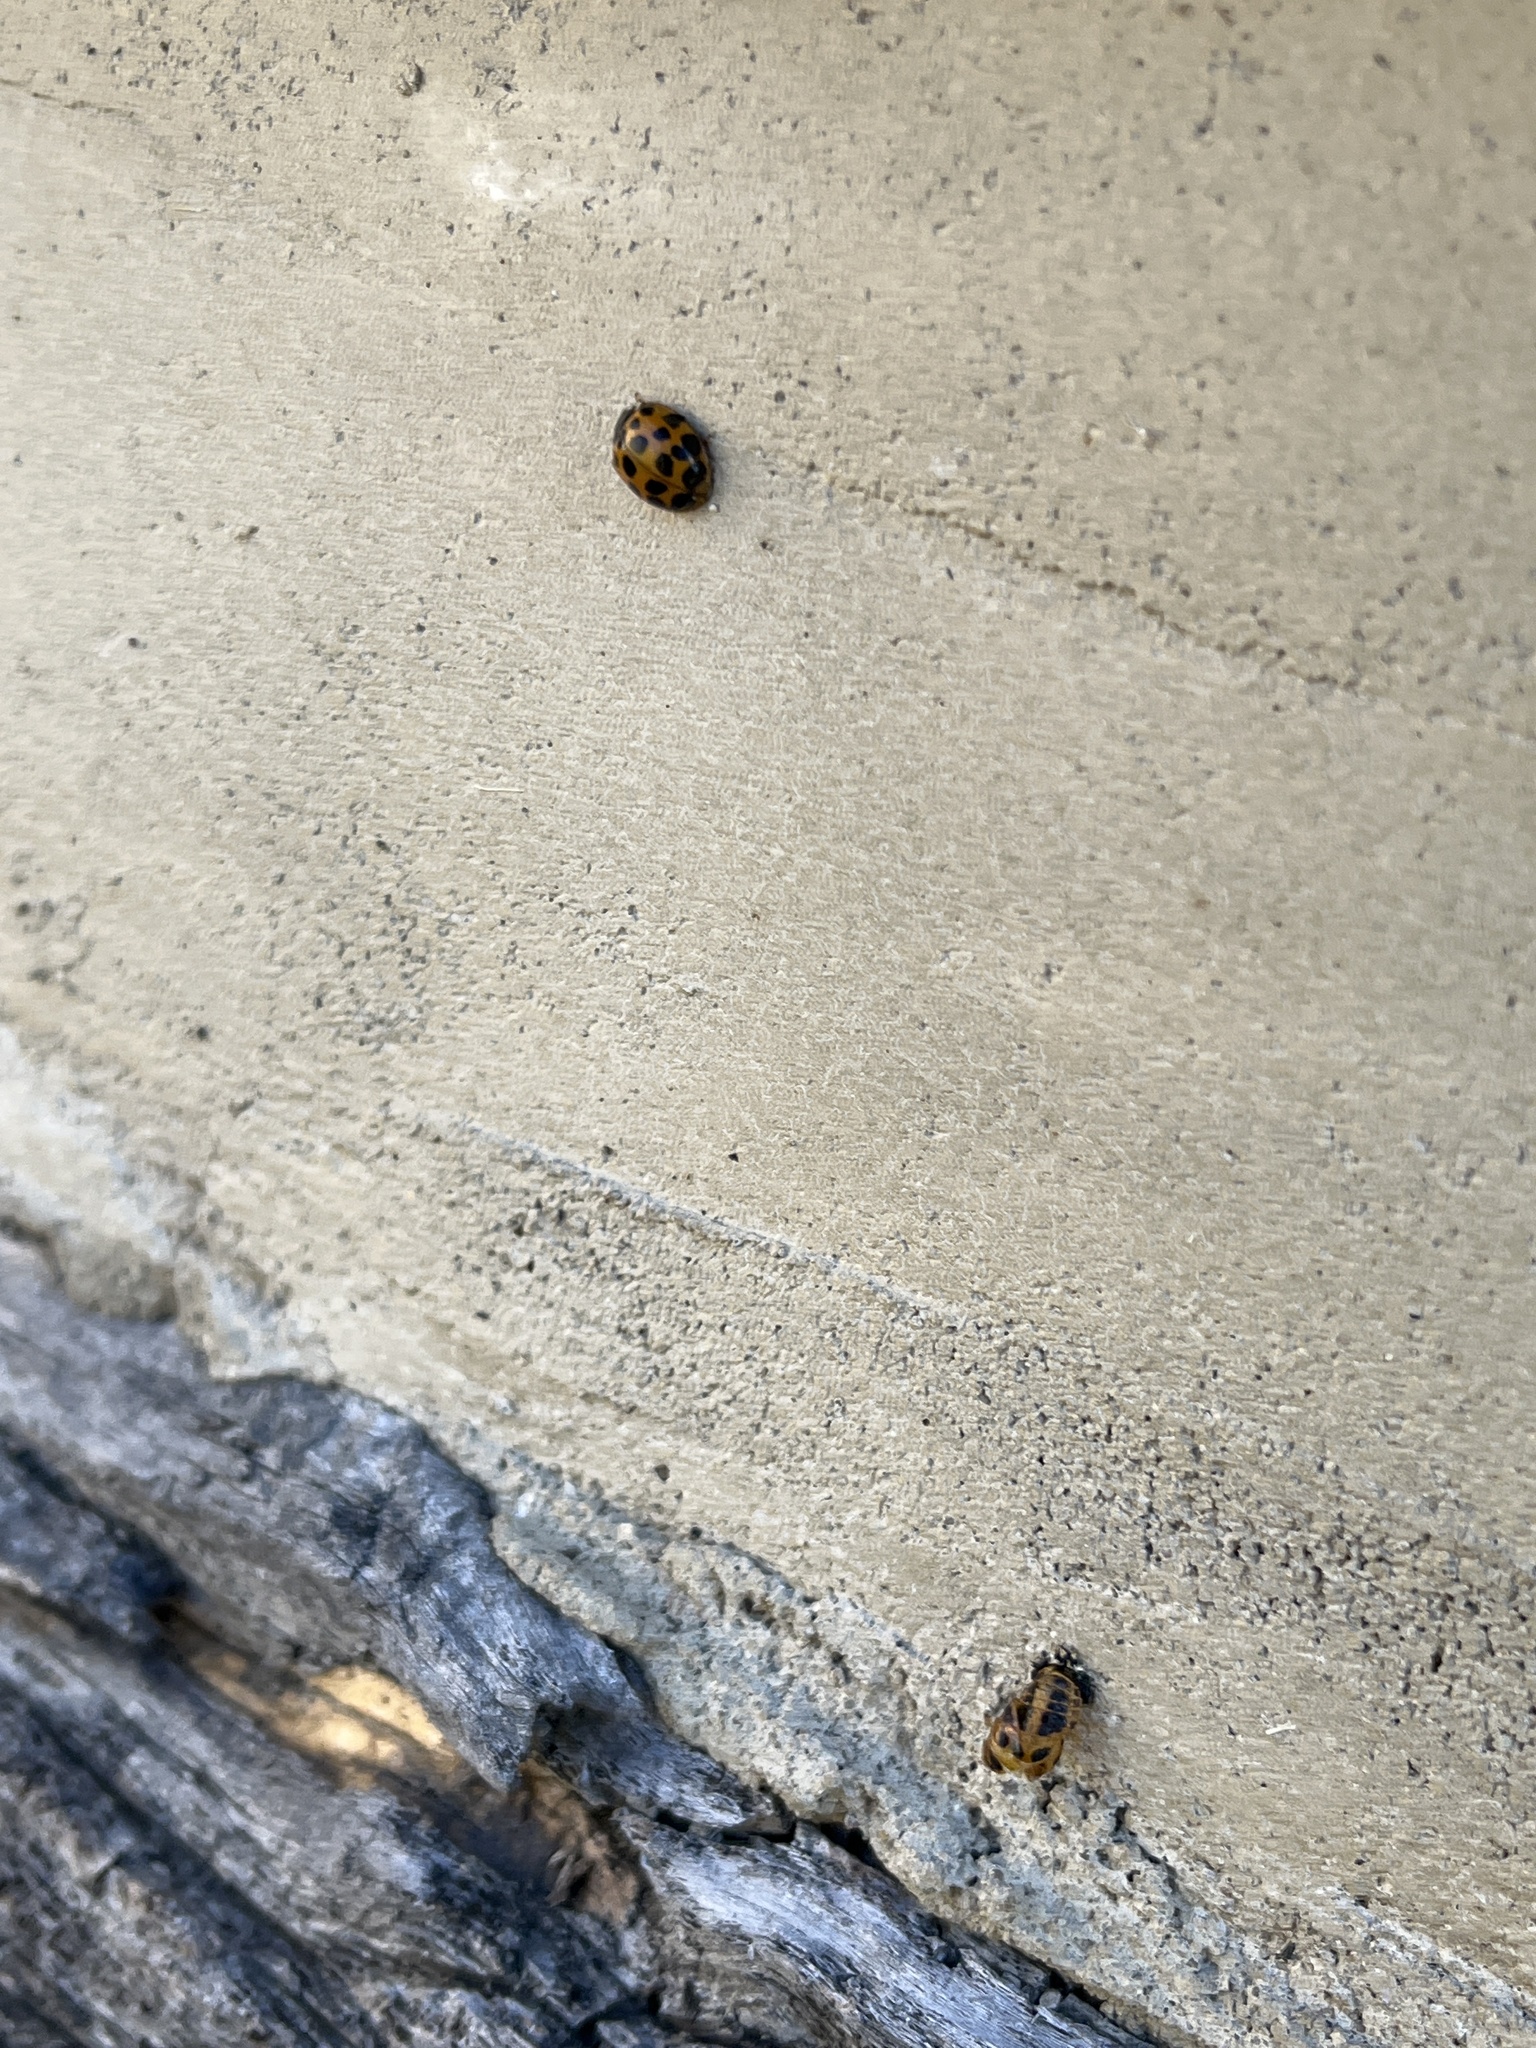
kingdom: Animalia
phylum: Arthropoda
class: Insecta
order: Coleoptera
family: Coccinellidae
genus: Harmonia
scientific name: Harmonia axyridis
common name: Harlequin ladybird
